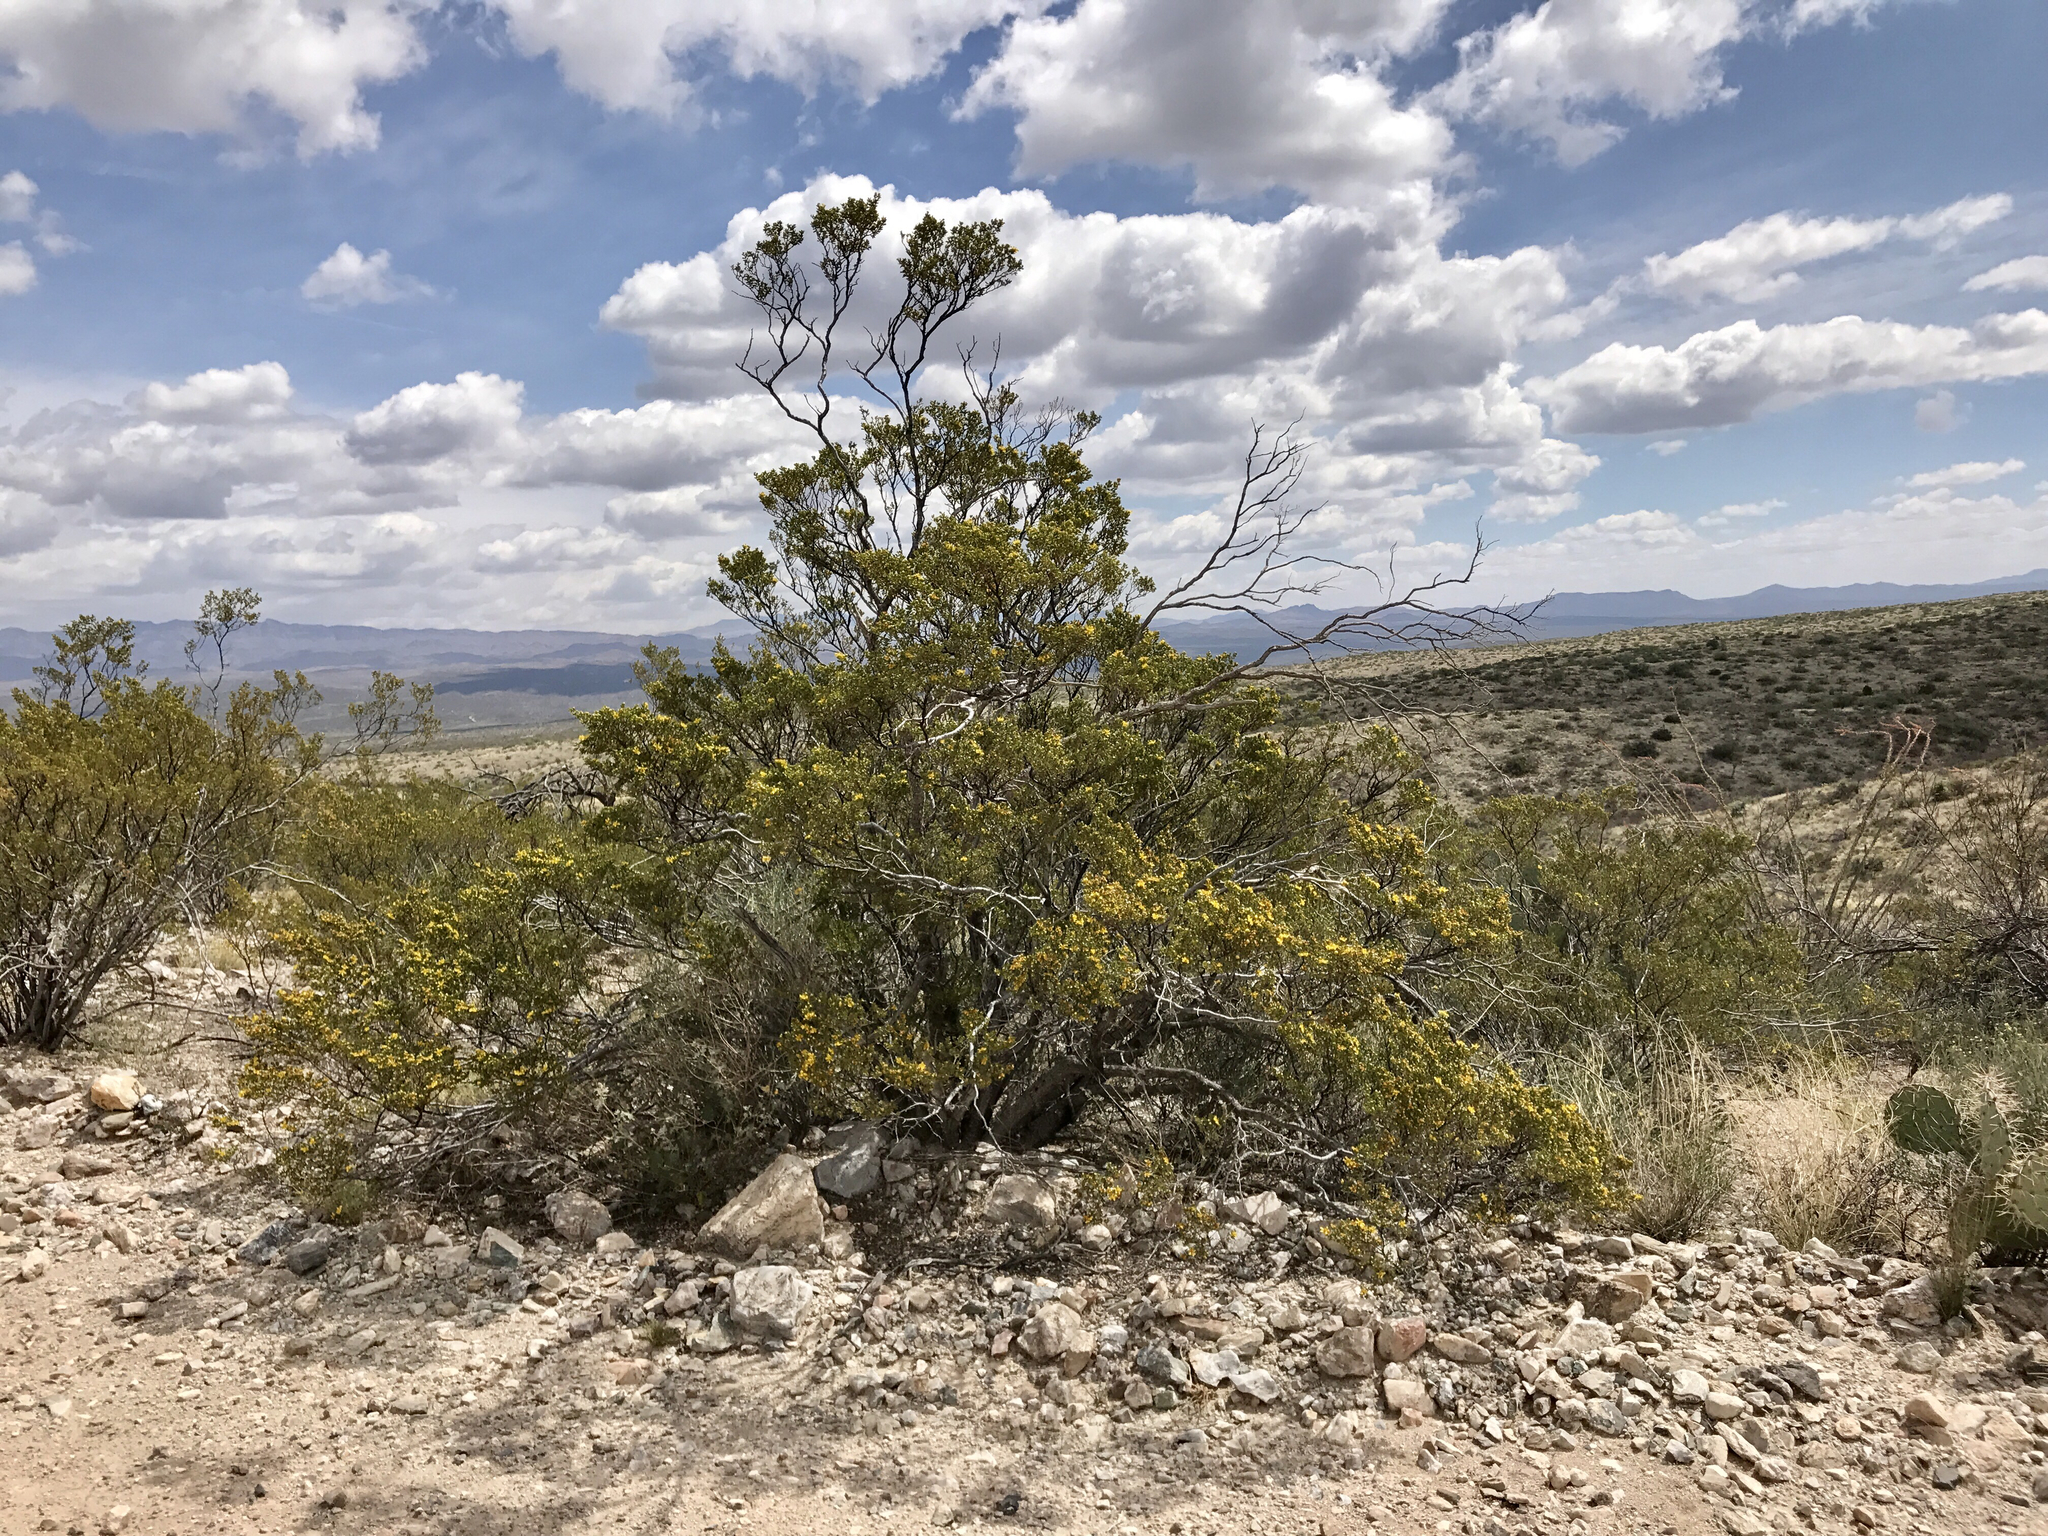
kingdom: Plantae
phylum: Tracheophyta
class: Magnoliopsida
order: Zygophyllales
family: Zygophyllaceae
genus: Larrea
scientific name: Larrea tridentata
